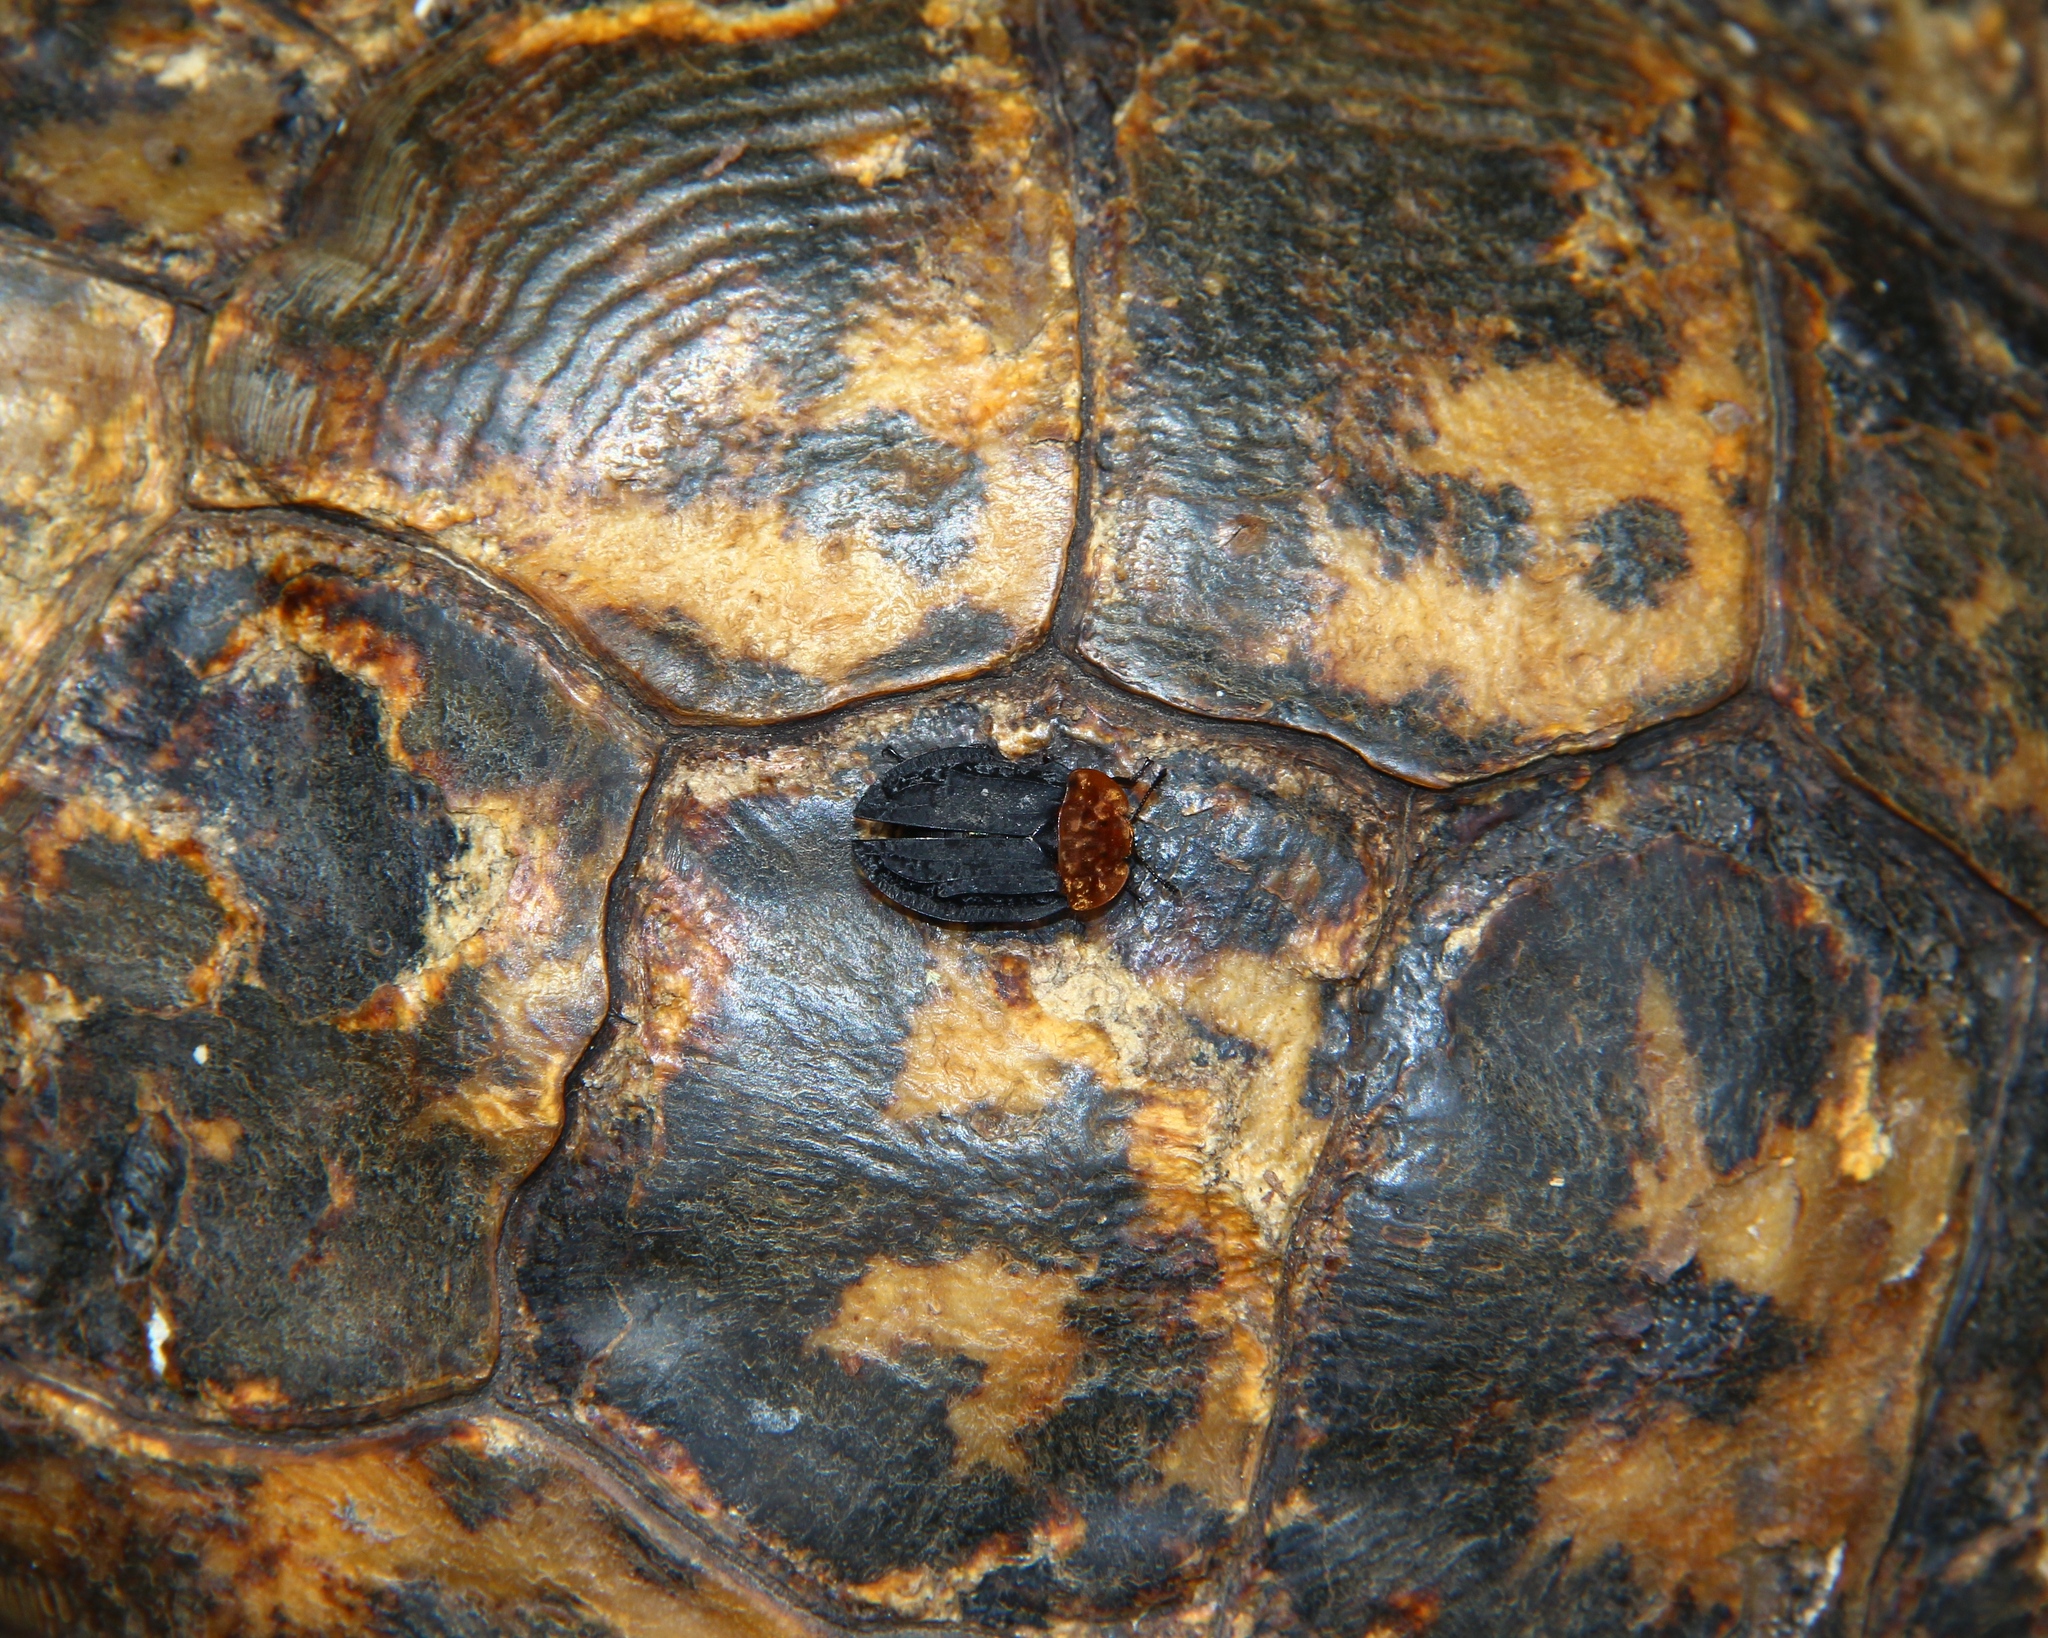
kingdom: Animalia
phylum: Arthropoda
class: Insecta
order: Coleoptera
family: Staphylinidae
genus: Oiceoptoma
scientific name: Oiceoptoma thoracicum
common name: Red-breasted carrion beetle
